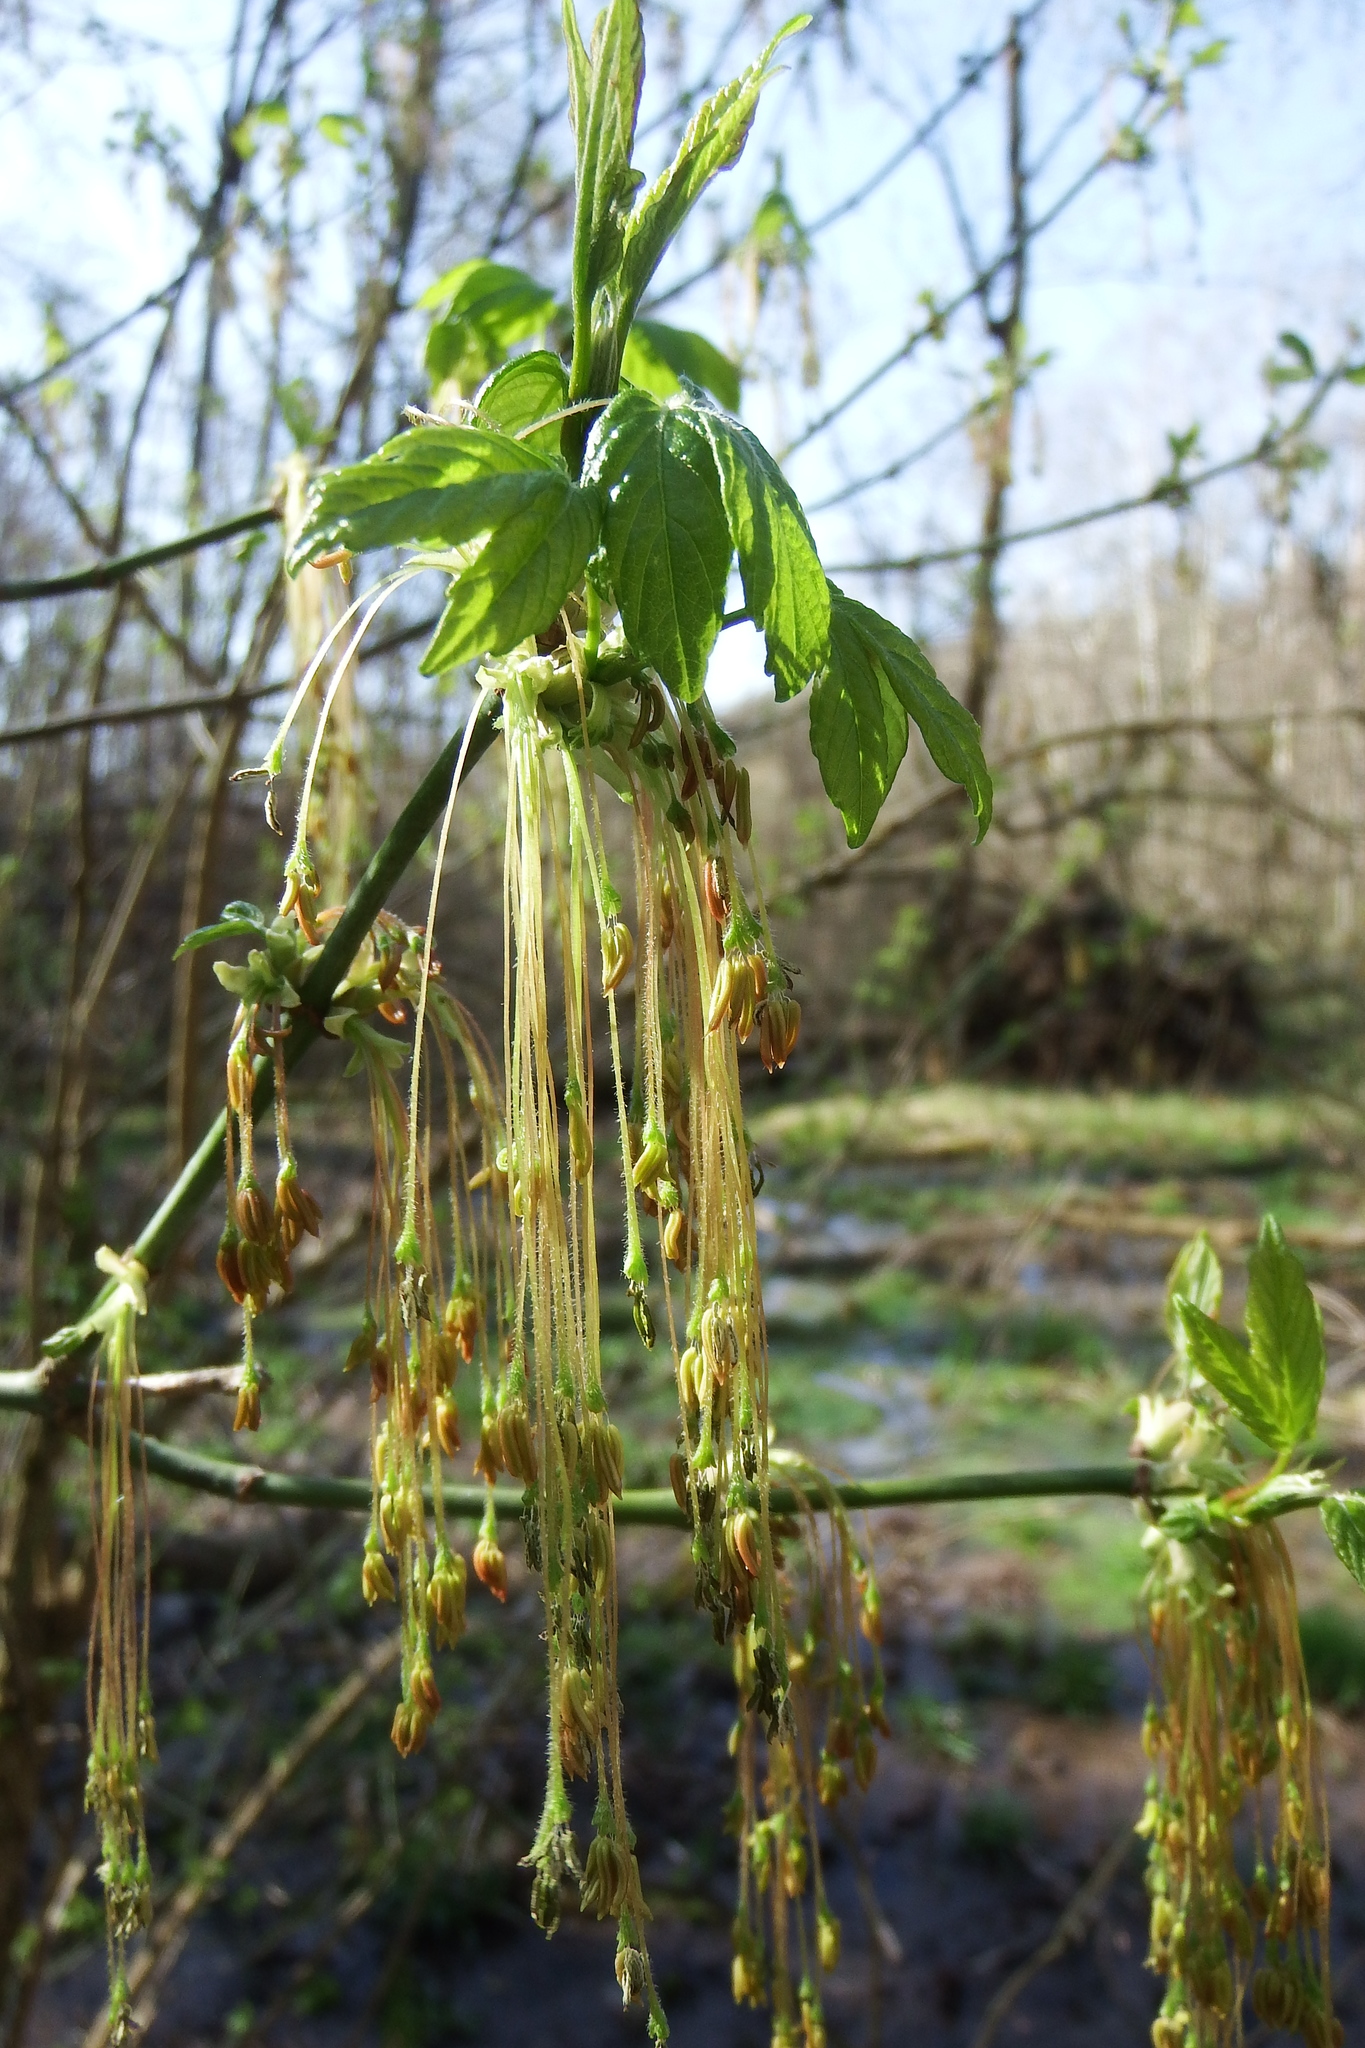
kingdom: Plantae
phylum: Tracheophyta
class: Magnoliopsida
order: Sapindales
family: Sapindaceae
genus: Acer
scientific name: Acer negundo
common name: Ashleaf maple
